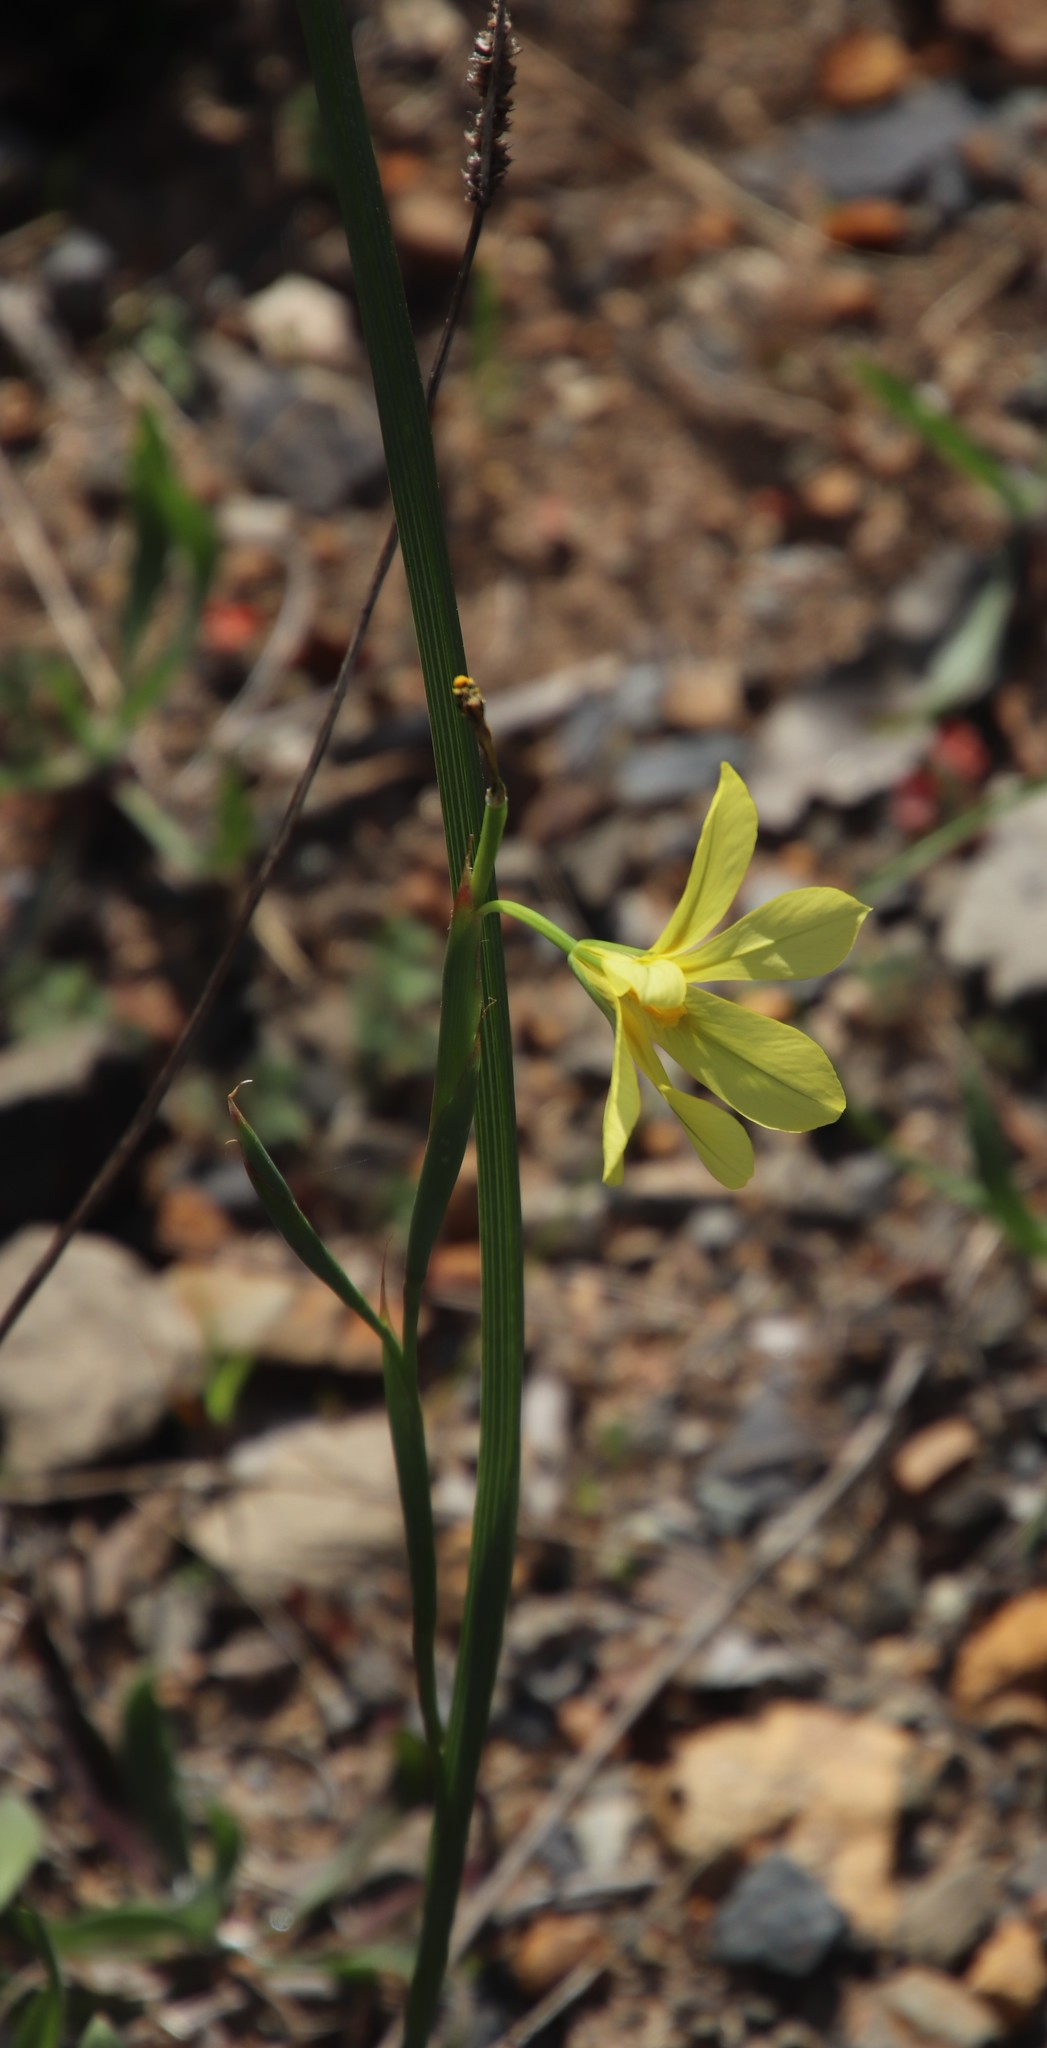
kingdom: Plantae
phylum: Tracheophyta
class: Liliopsida
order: Asparagales
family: Iridaceae
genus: Moraea
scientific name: Moraea collina
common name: Cape-tulip
